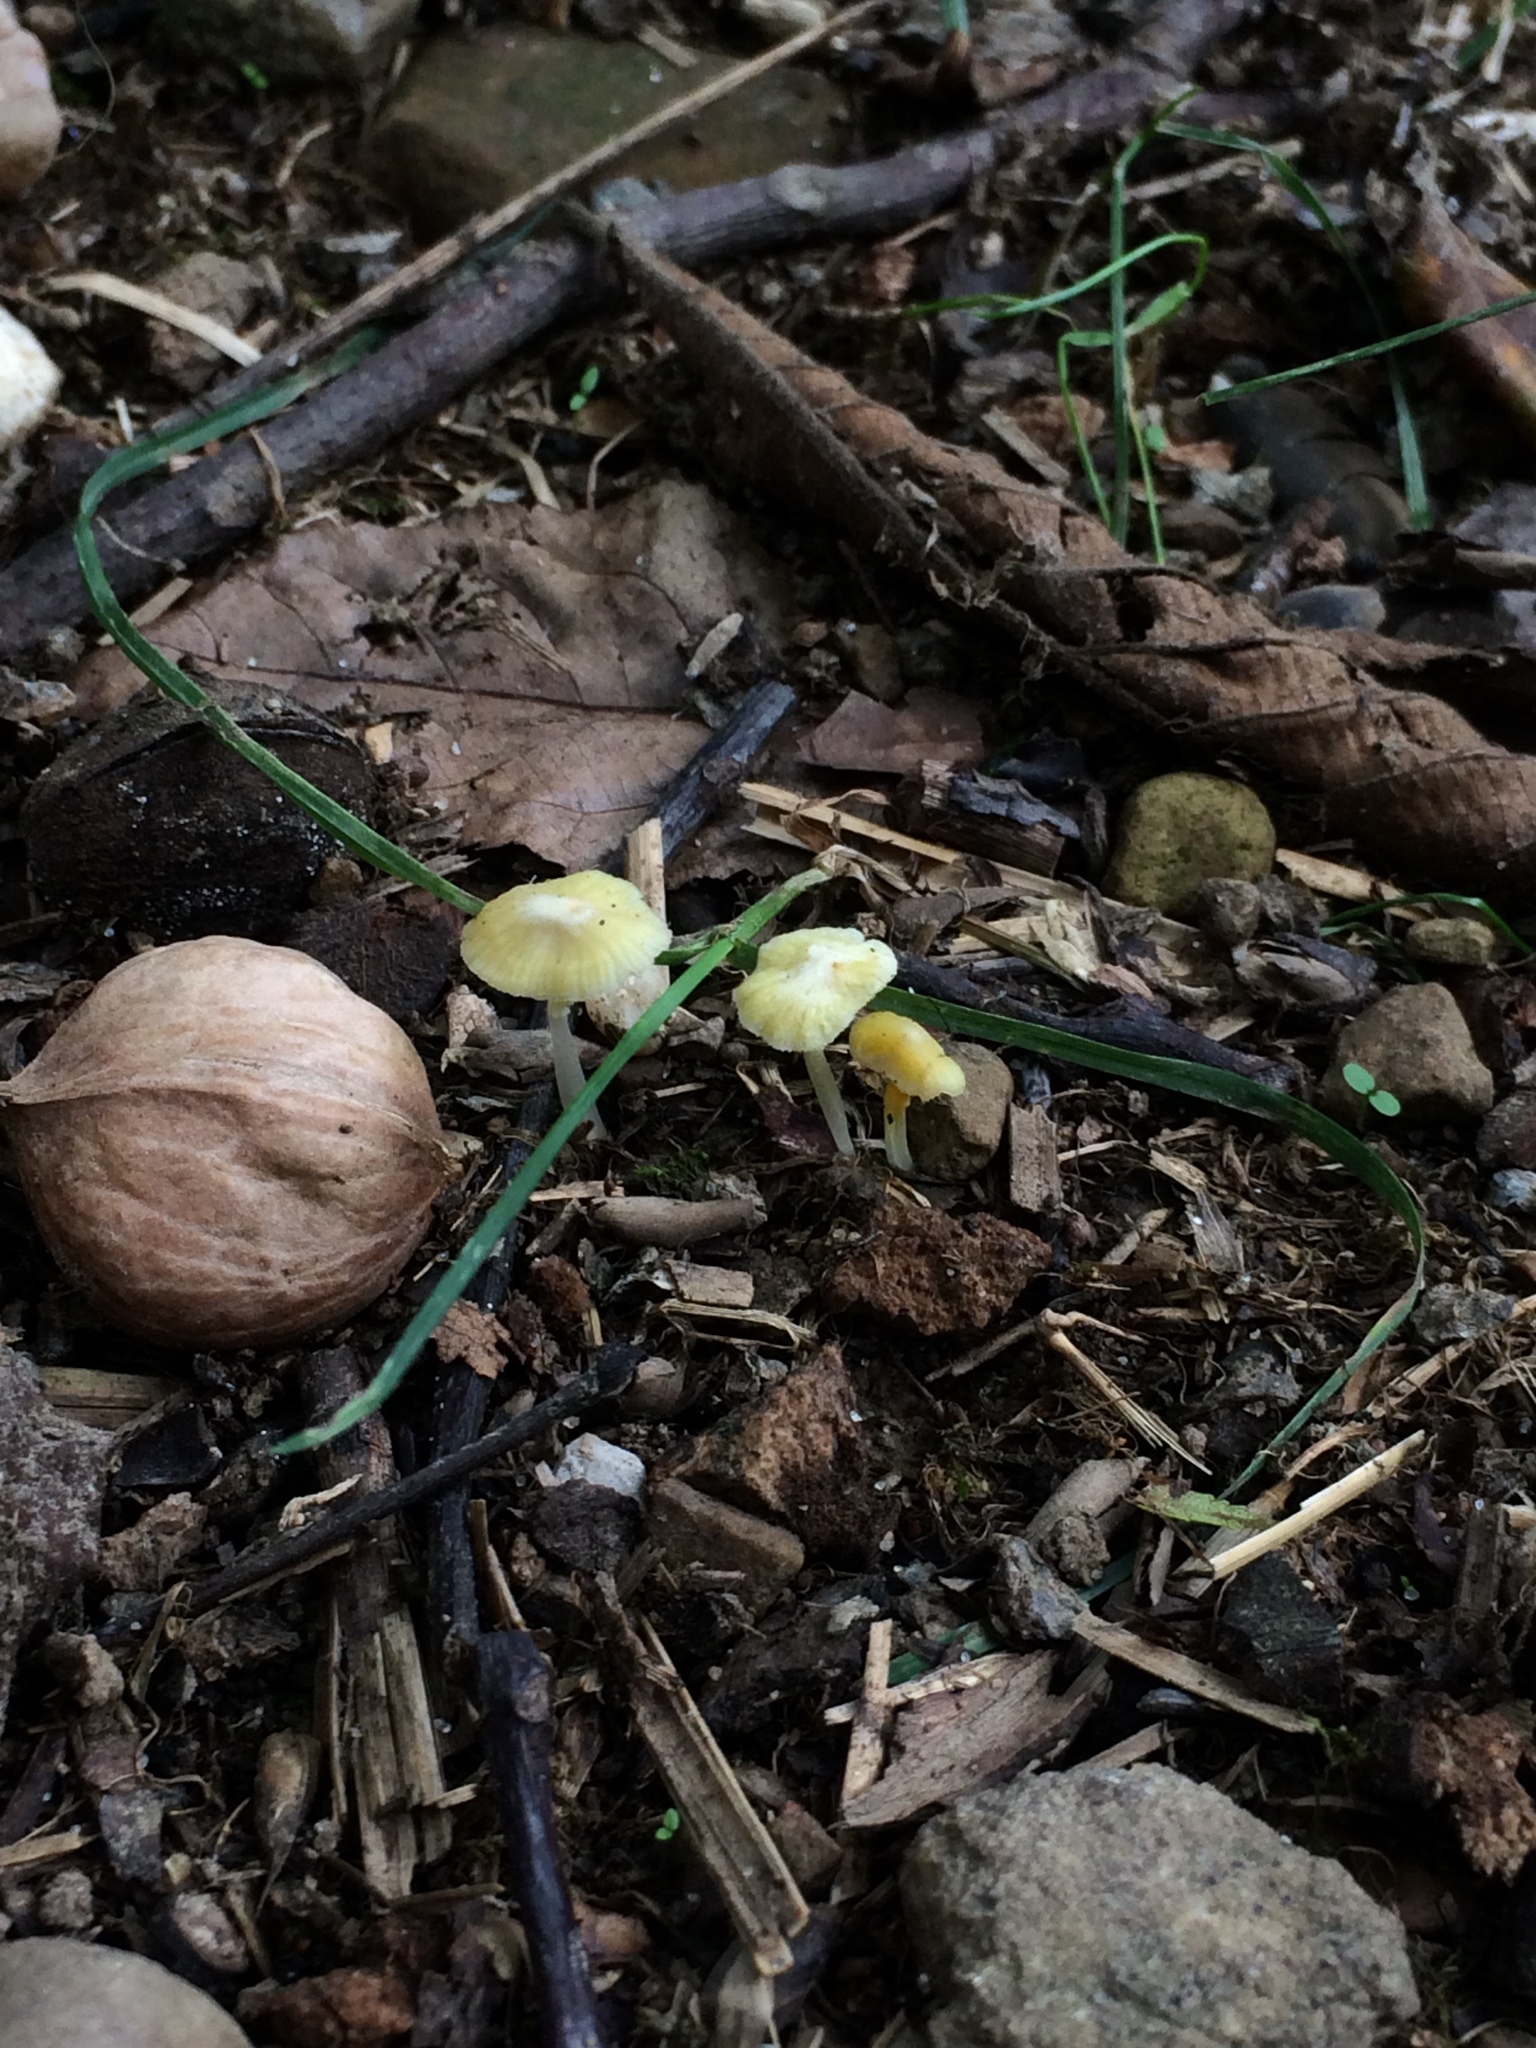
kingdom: Fungi
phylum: Basidiomycota
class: Agaricomycetes
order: Agaricales
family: Mycenaceae
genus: Mycena
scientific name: Mycena crocea
